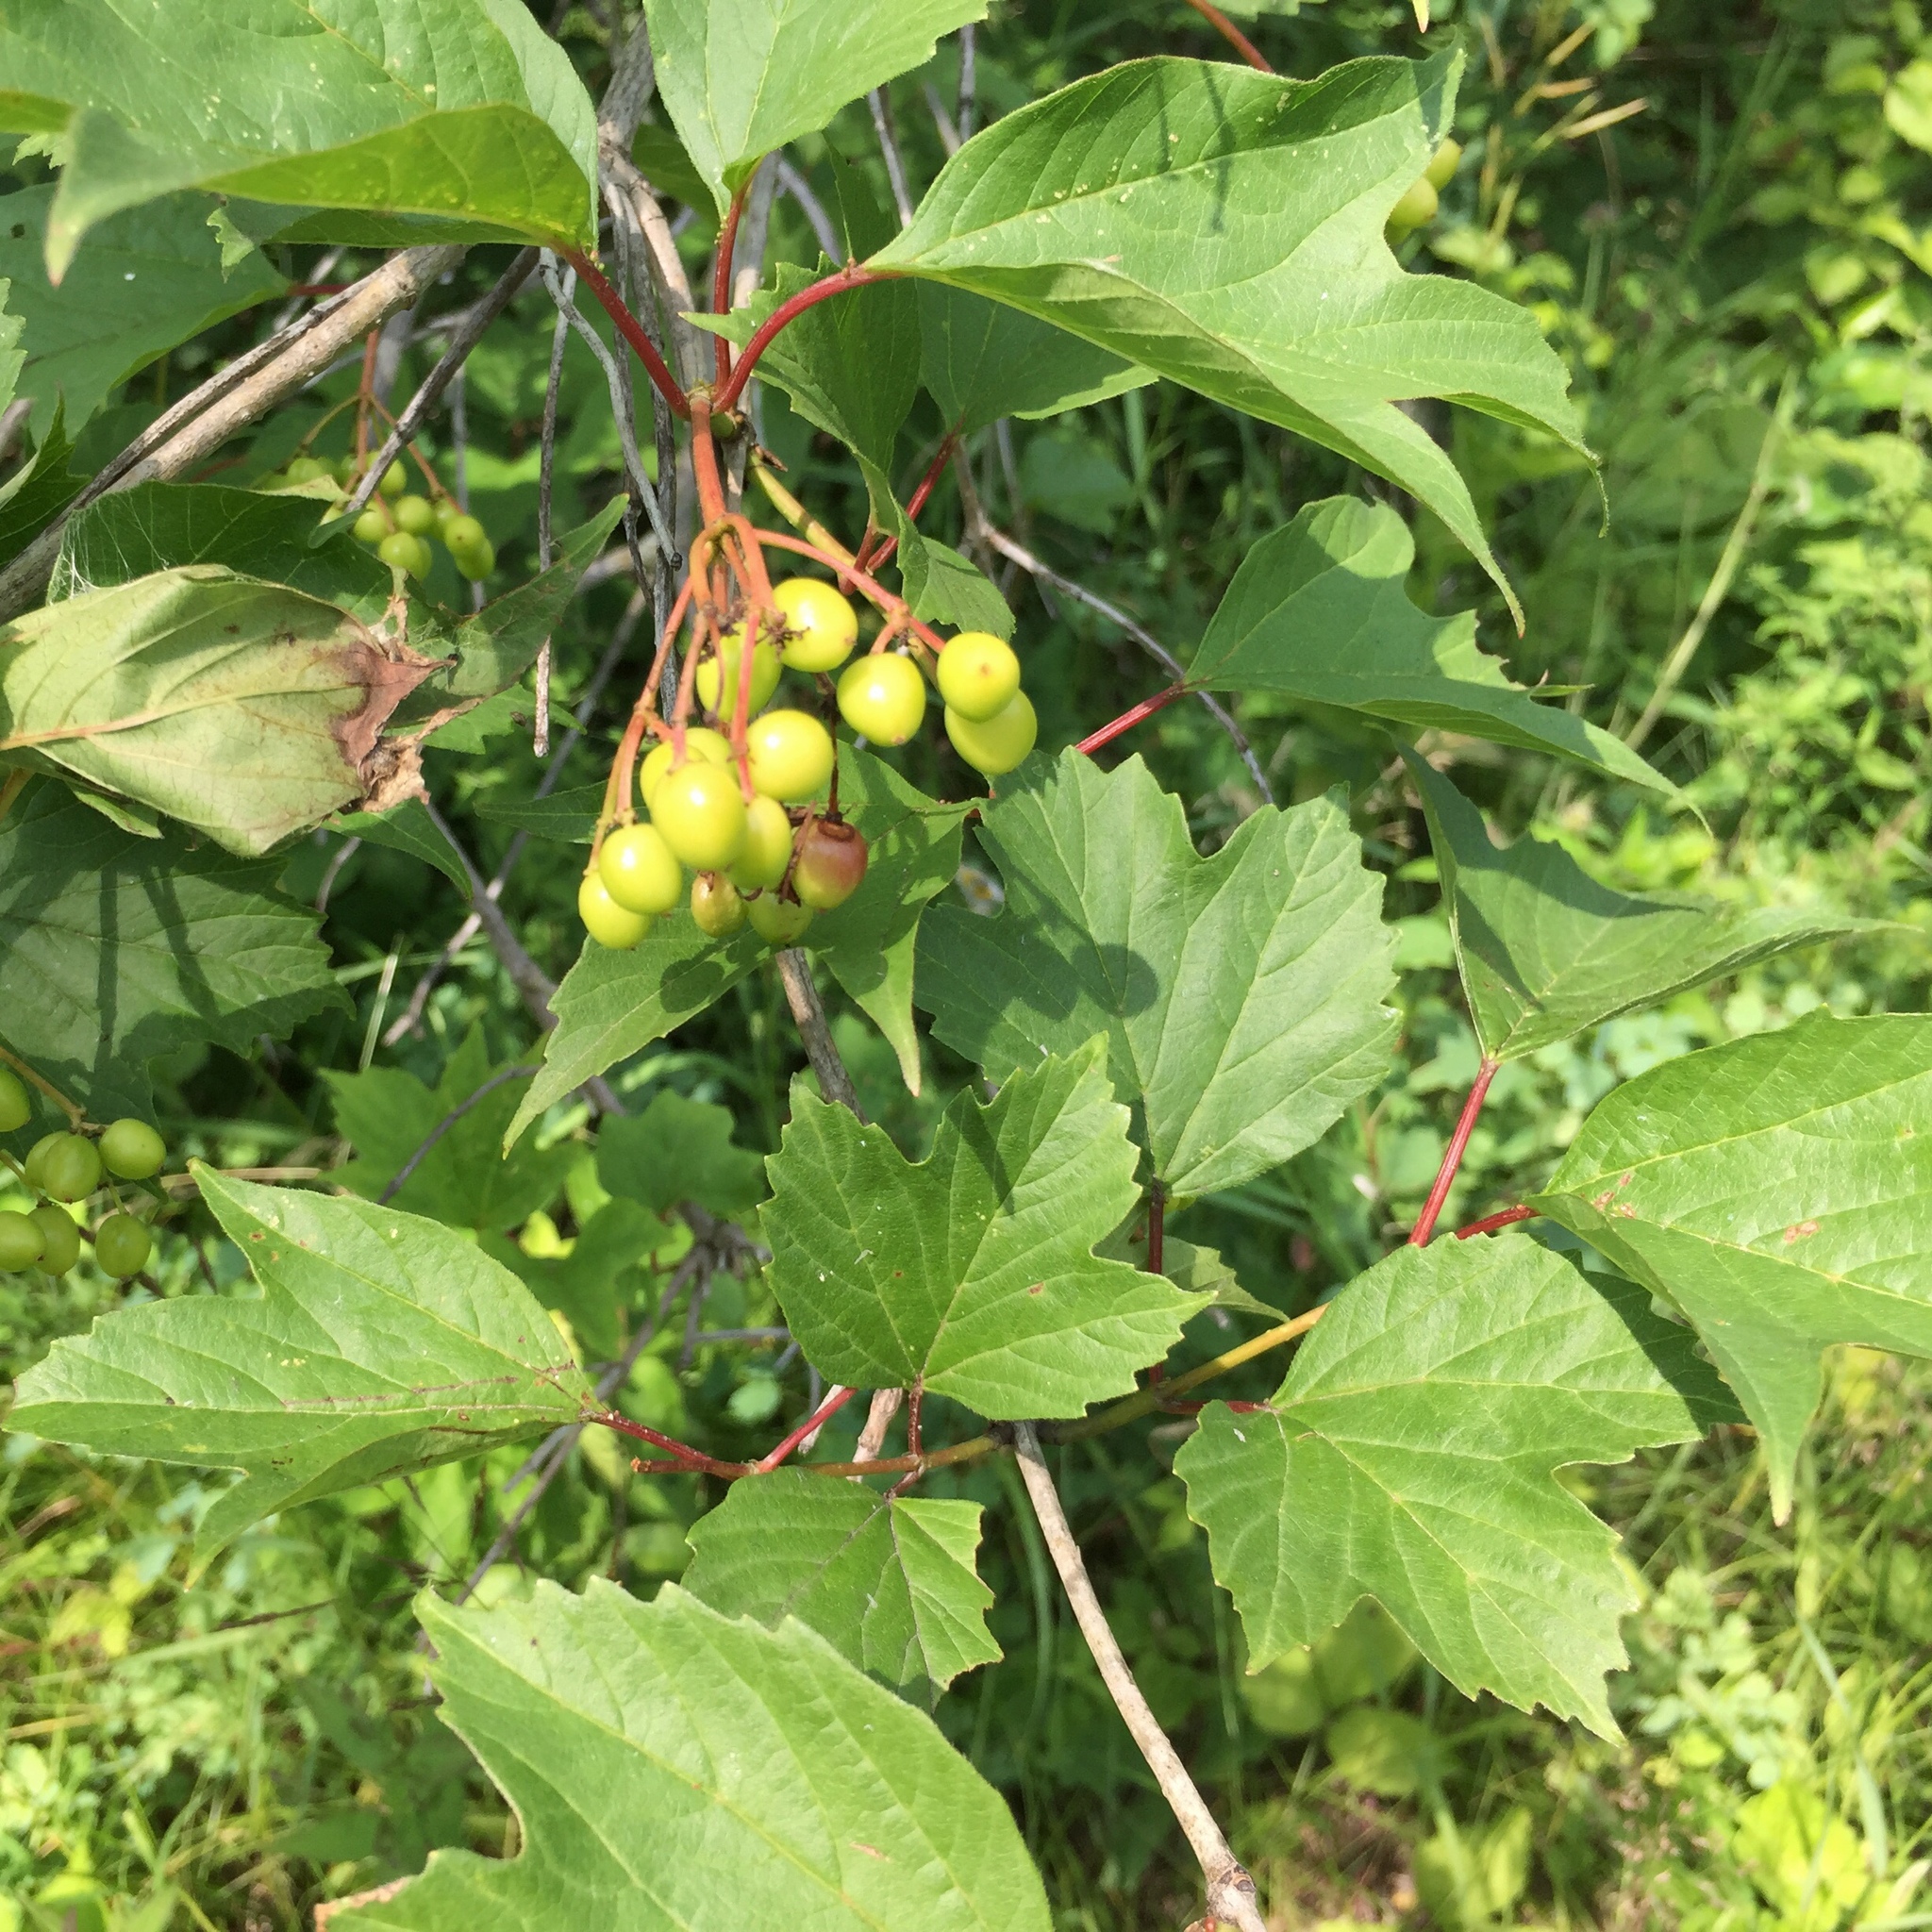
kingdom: Plantae
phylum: Tracheophyta
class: Magnoliopsida
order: Dipsacales
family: Viburnaceae
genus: Viburnum
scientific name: Viburnum trilobum
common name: American cranberrybush
